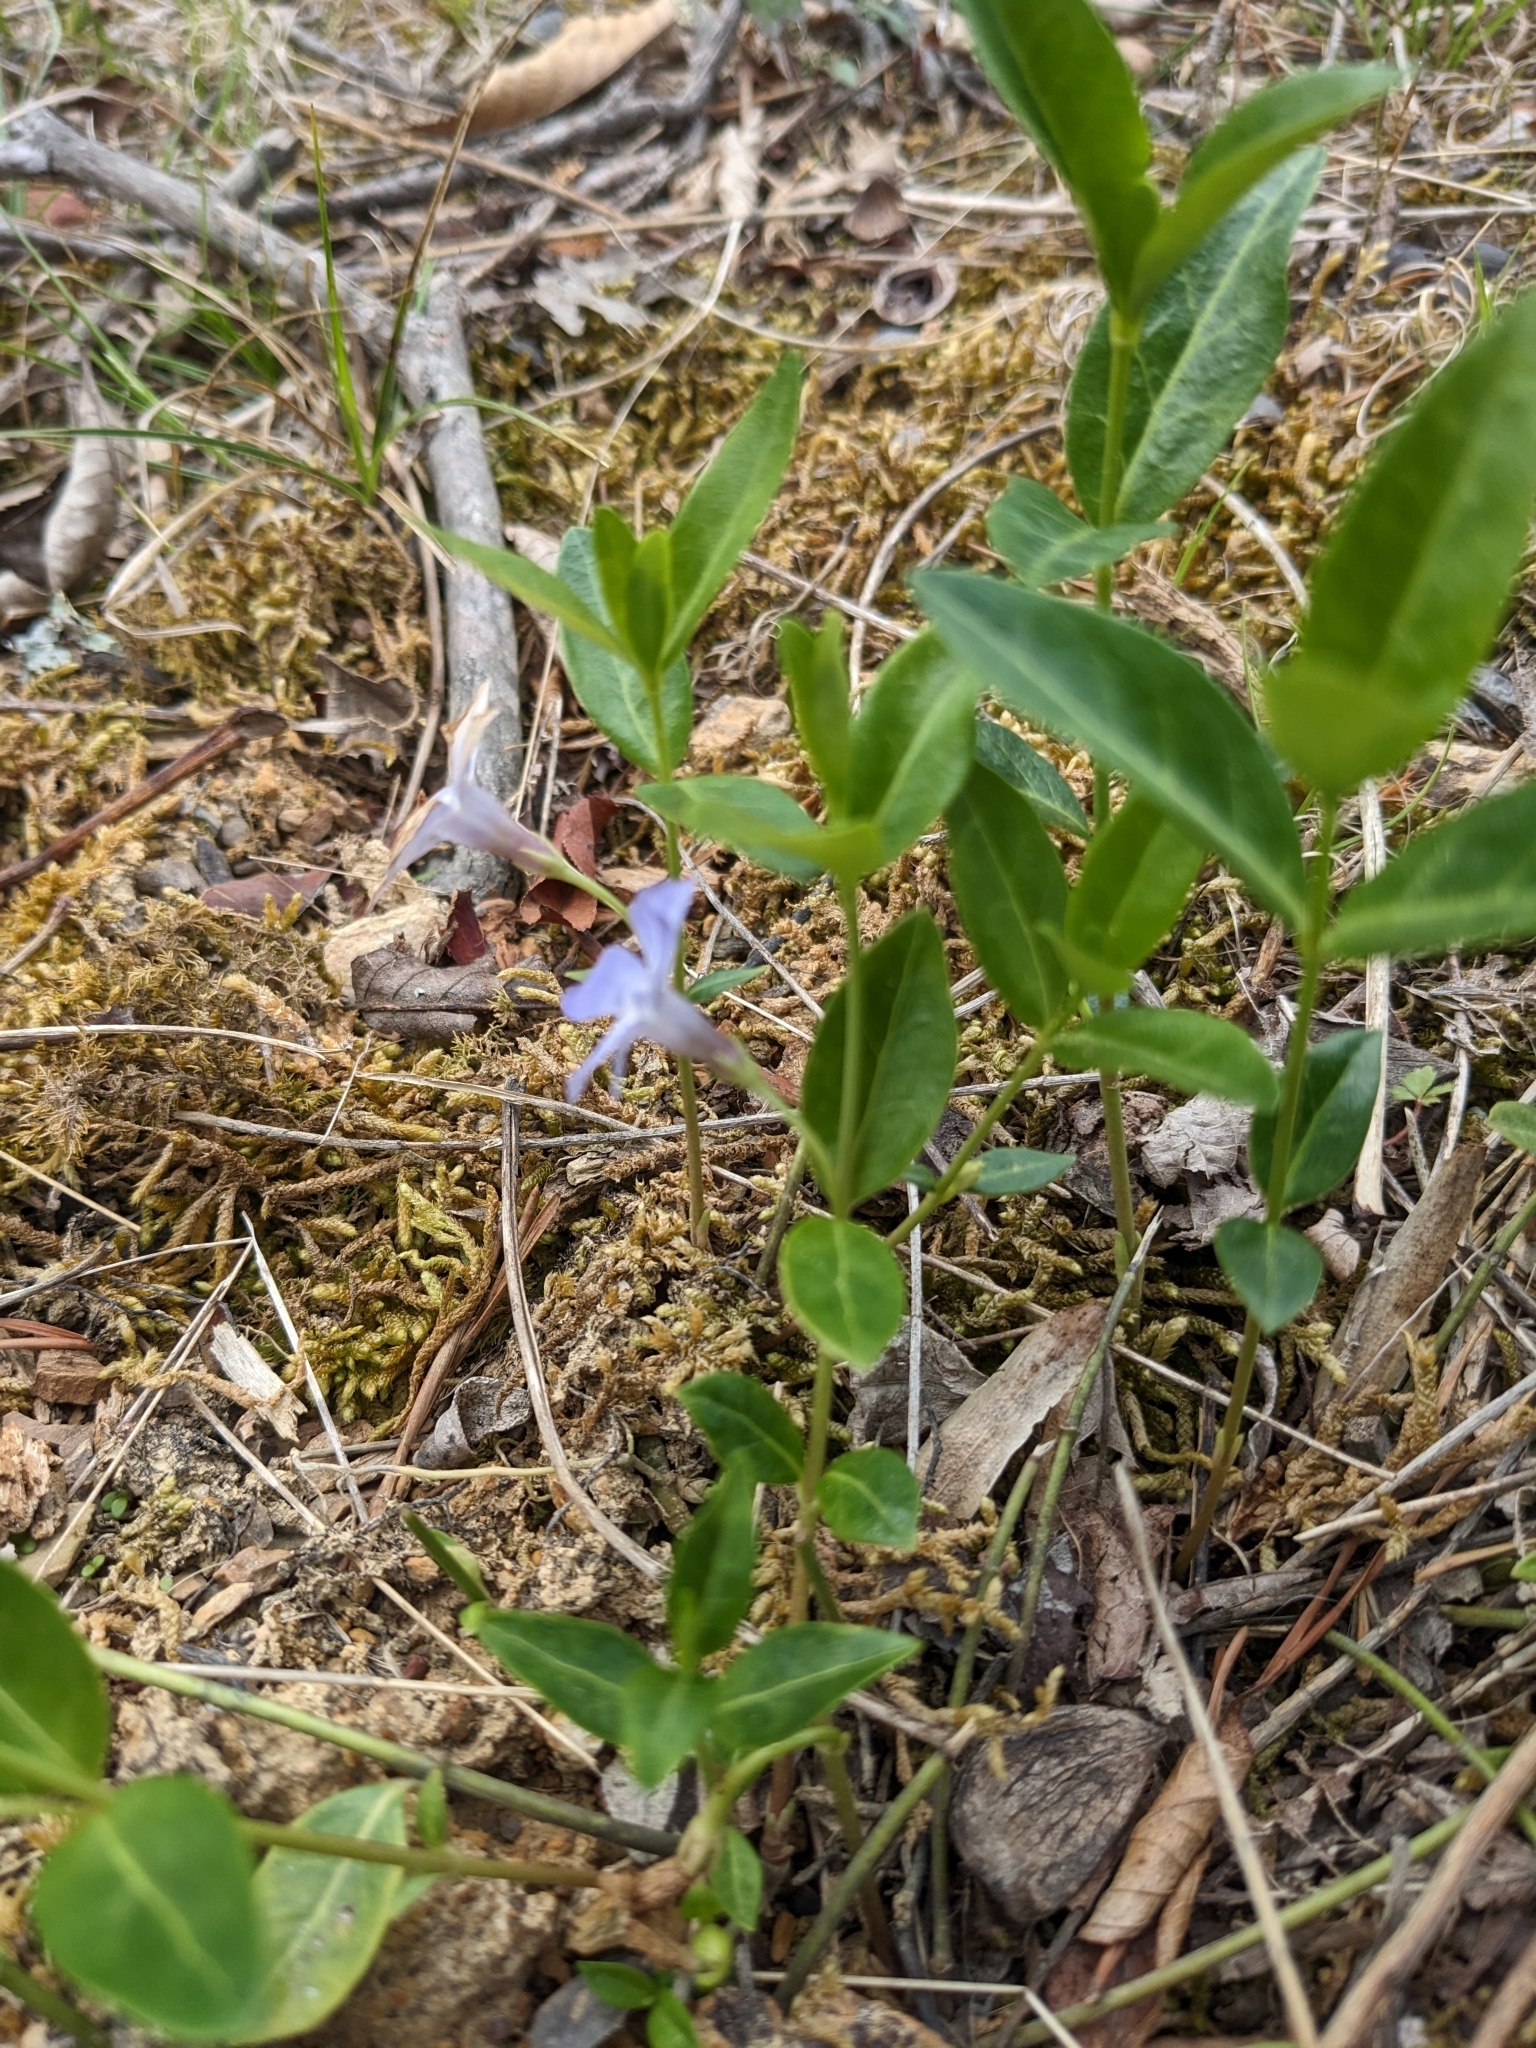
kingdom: Plantae
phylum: Tracheophyta
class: Magnoliopsida
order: Gentianales
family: Apocynaceae
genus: Vinca
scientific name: Vinca minor
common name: Lesser periwinkle
